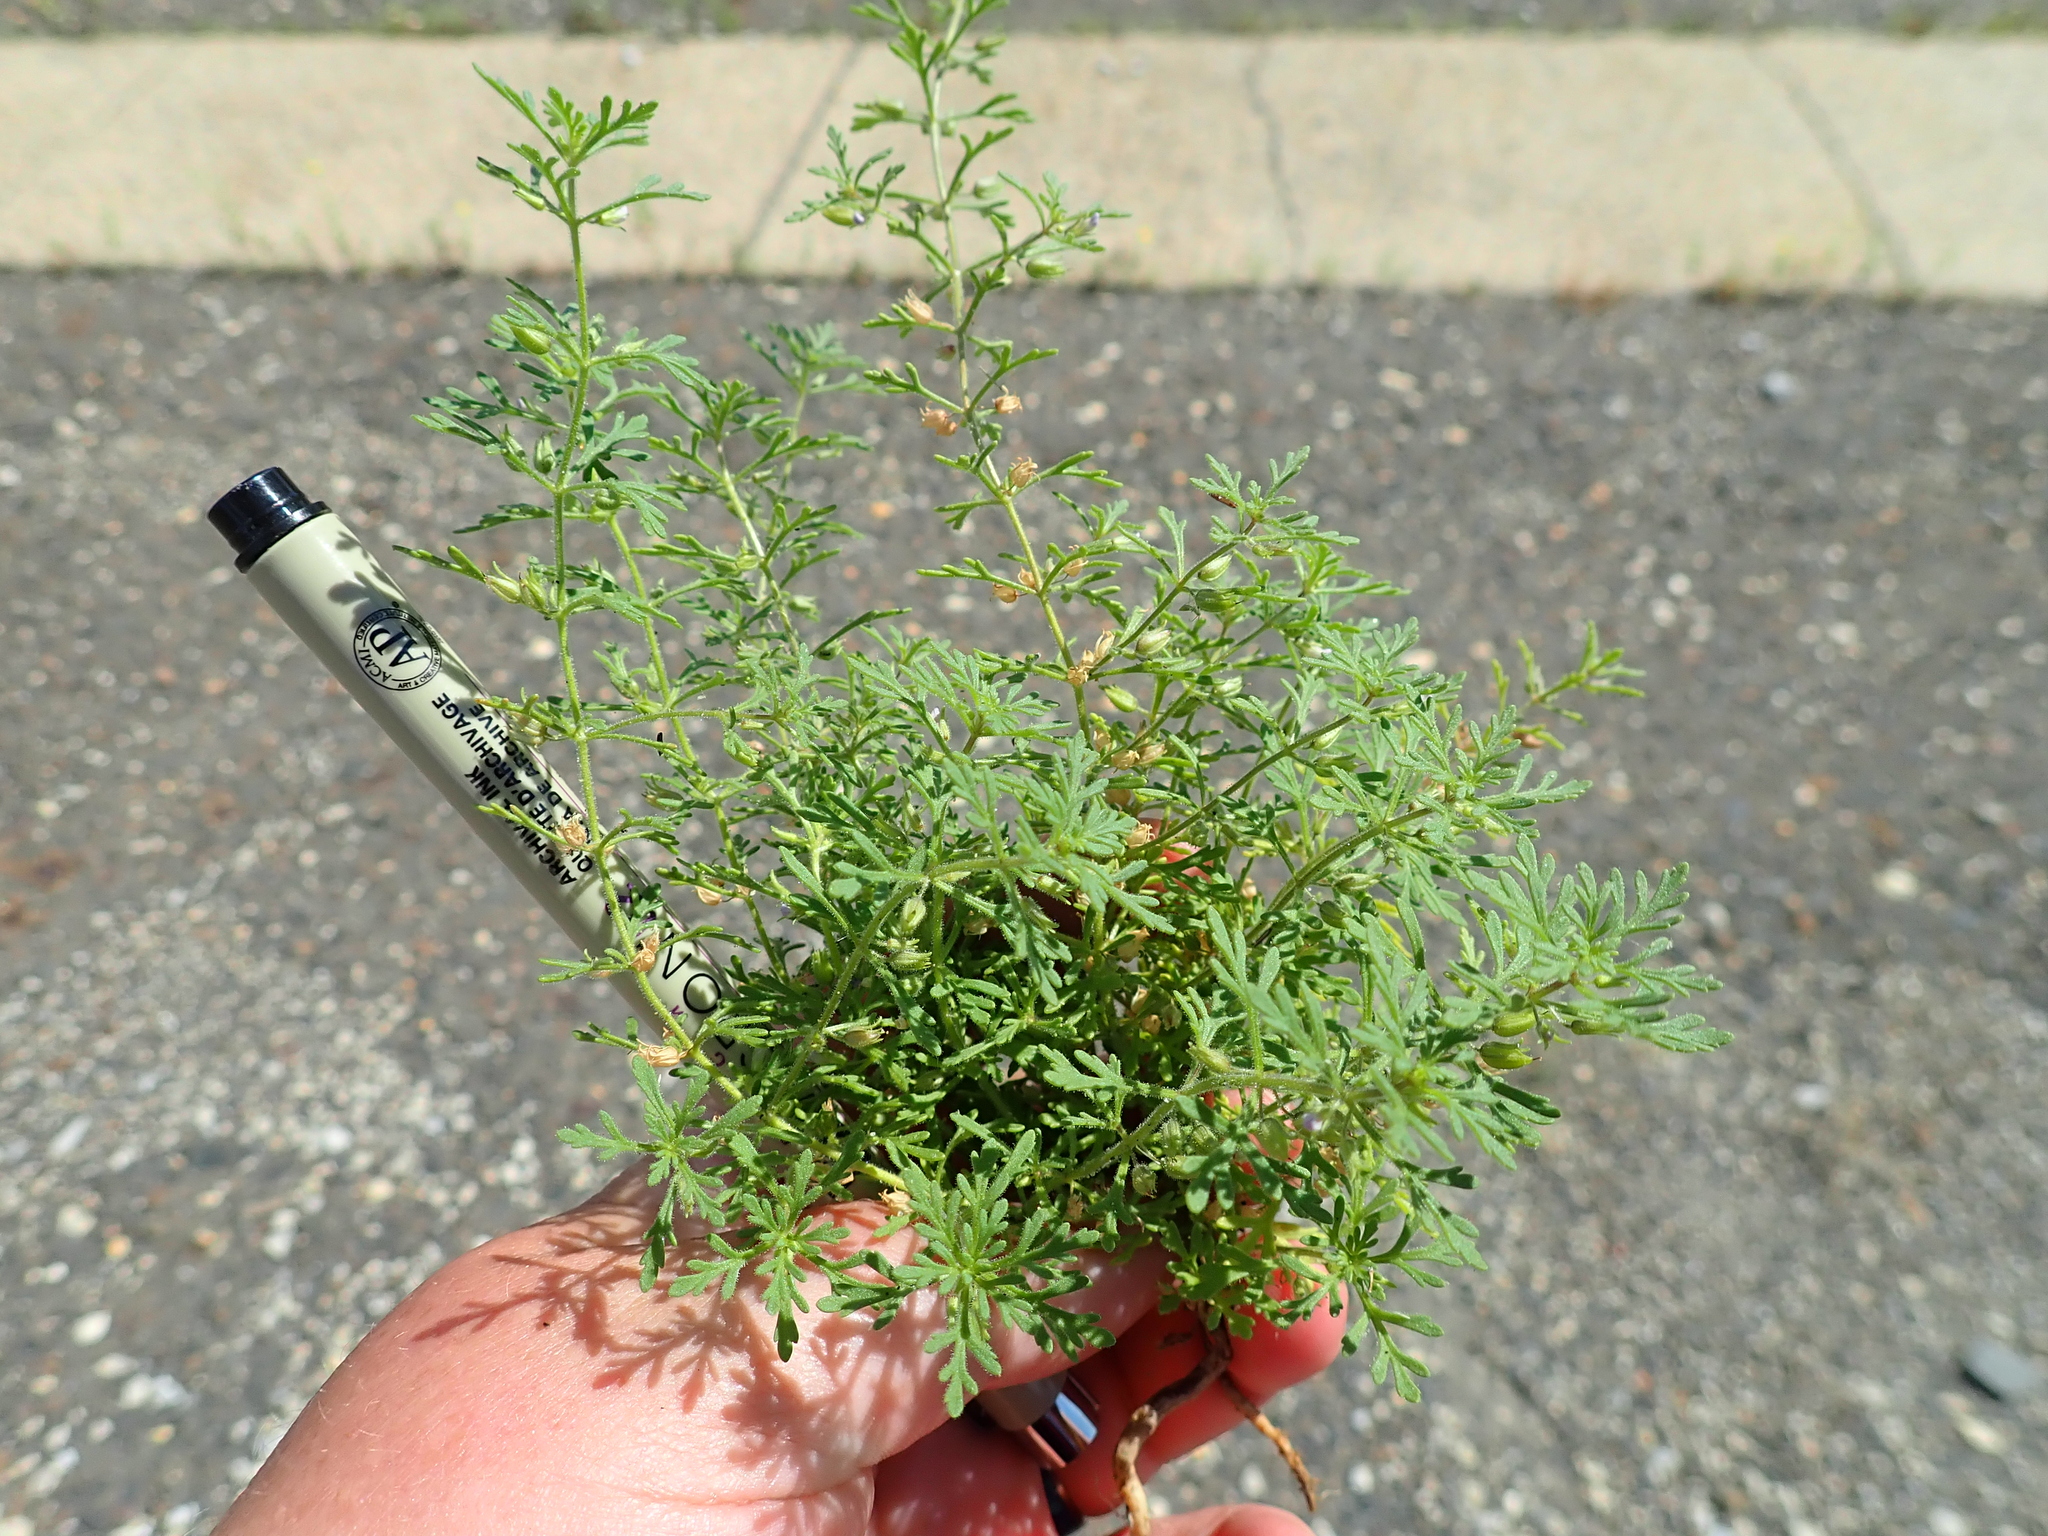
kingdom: Plantae
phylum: Tracheophyta
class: Magnoliopsida
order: Lamiales
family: Plantaginaceae
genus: Leucospora
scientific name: Leucospora multifida
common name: Narrow-leaf paleseed
